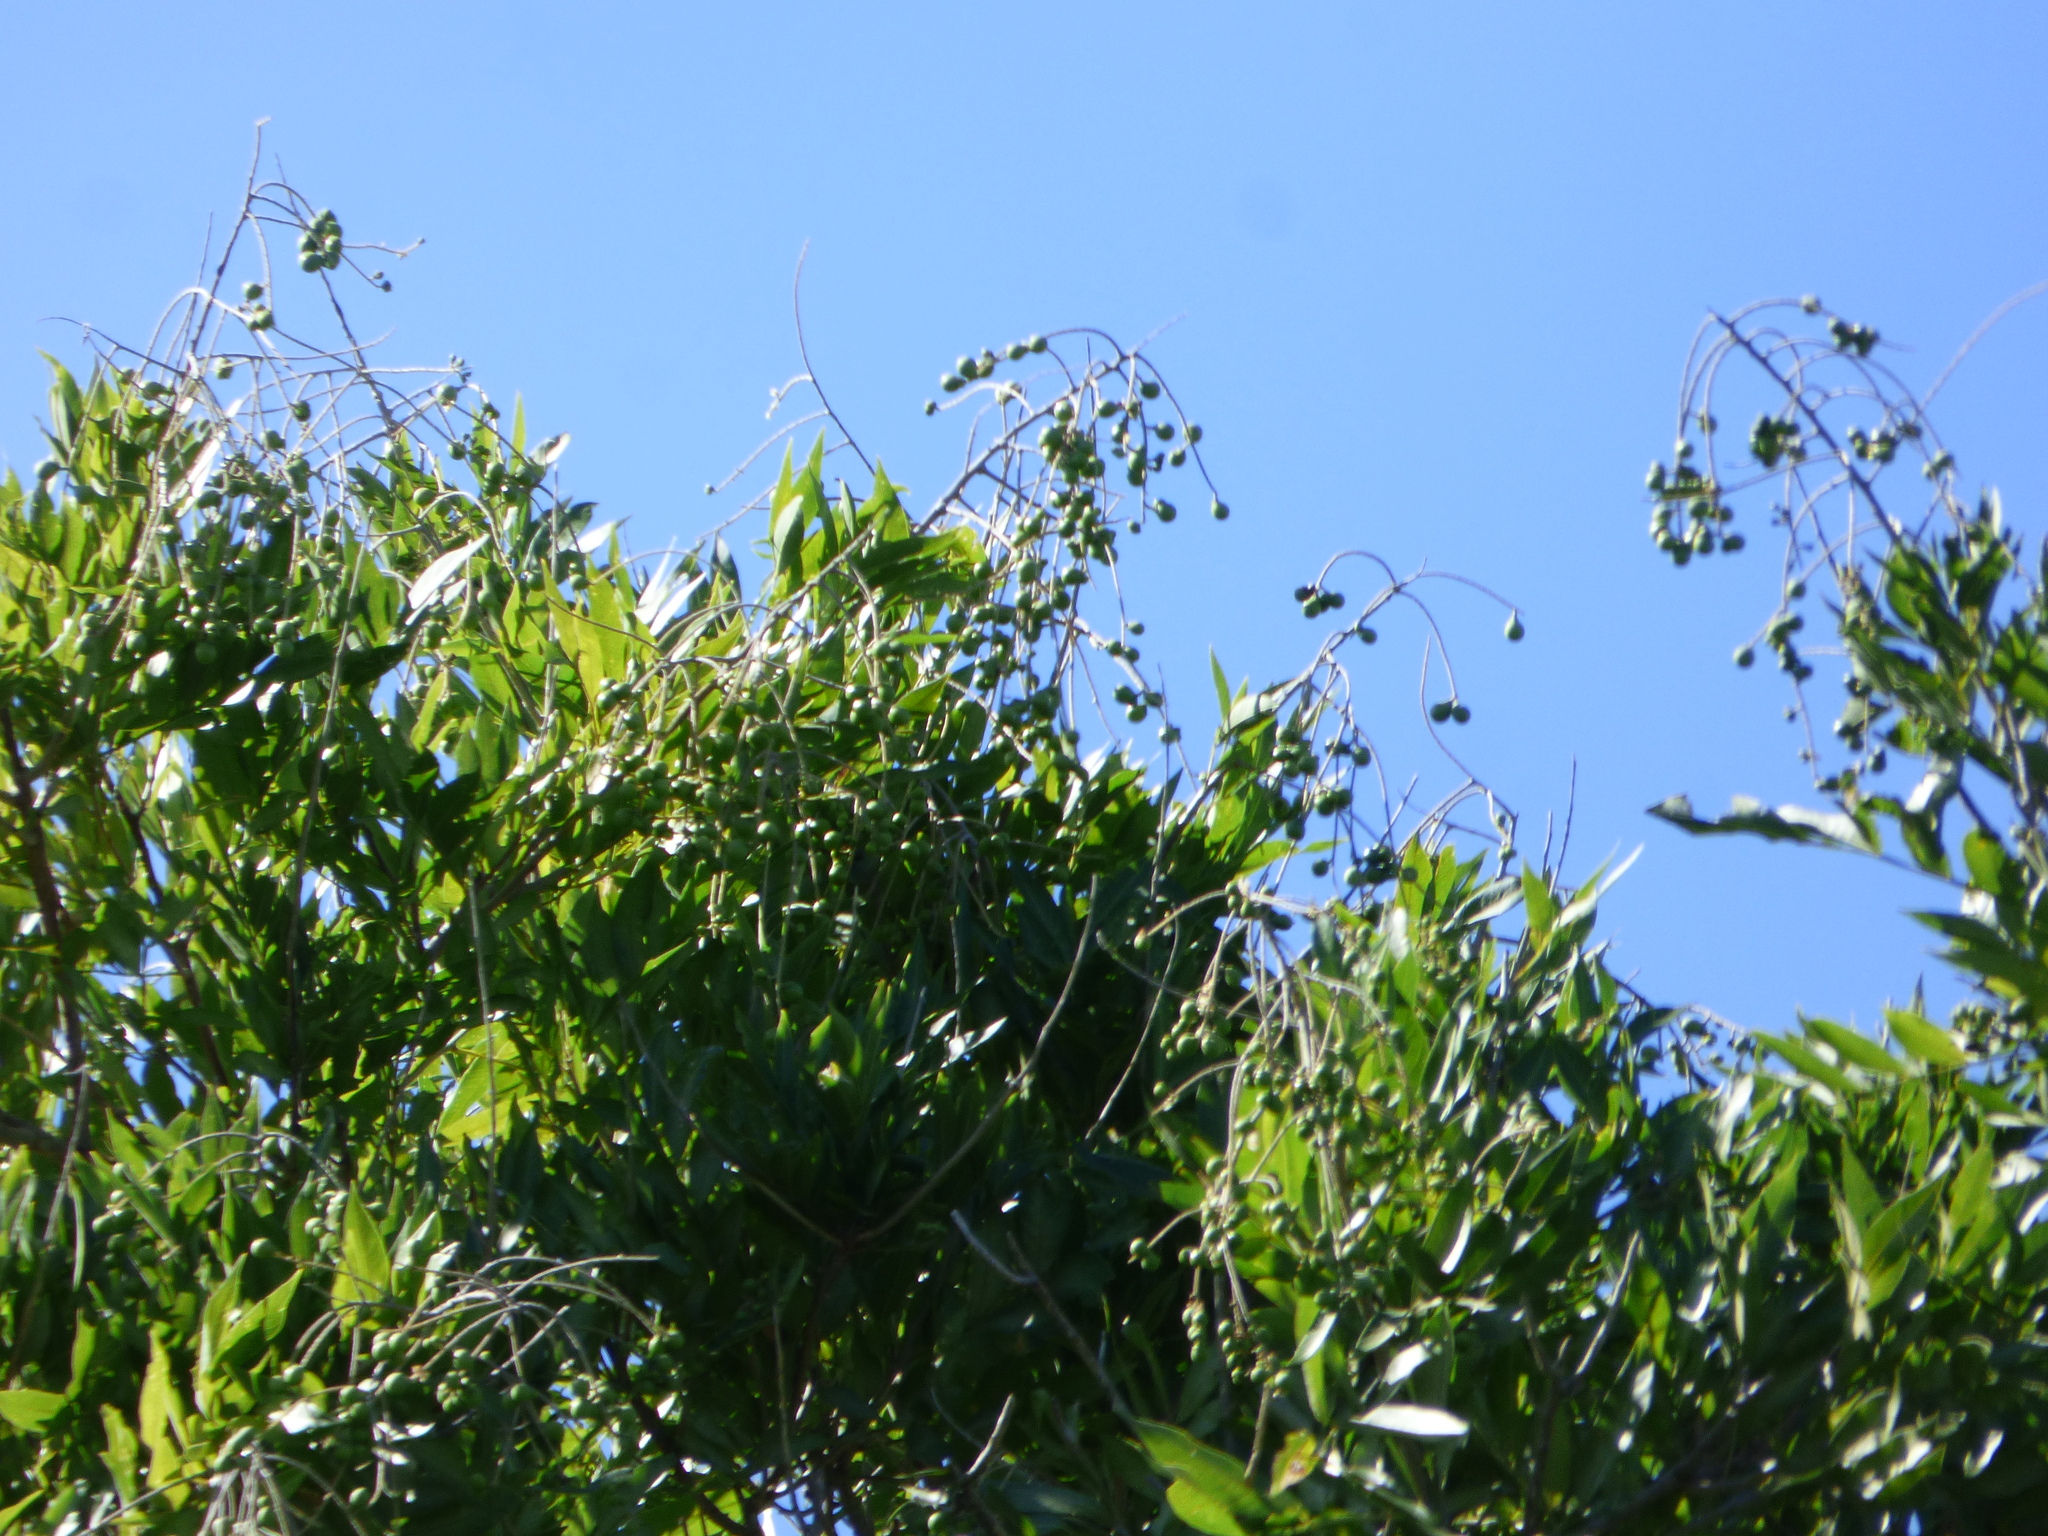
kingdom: Plantae
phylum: Tracheophyta
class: Magnoliopsida
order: Sapindales
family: Sapindaceae
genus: Sapindus
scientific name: Sapindus saponaria
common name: Wingleaf soapberry
